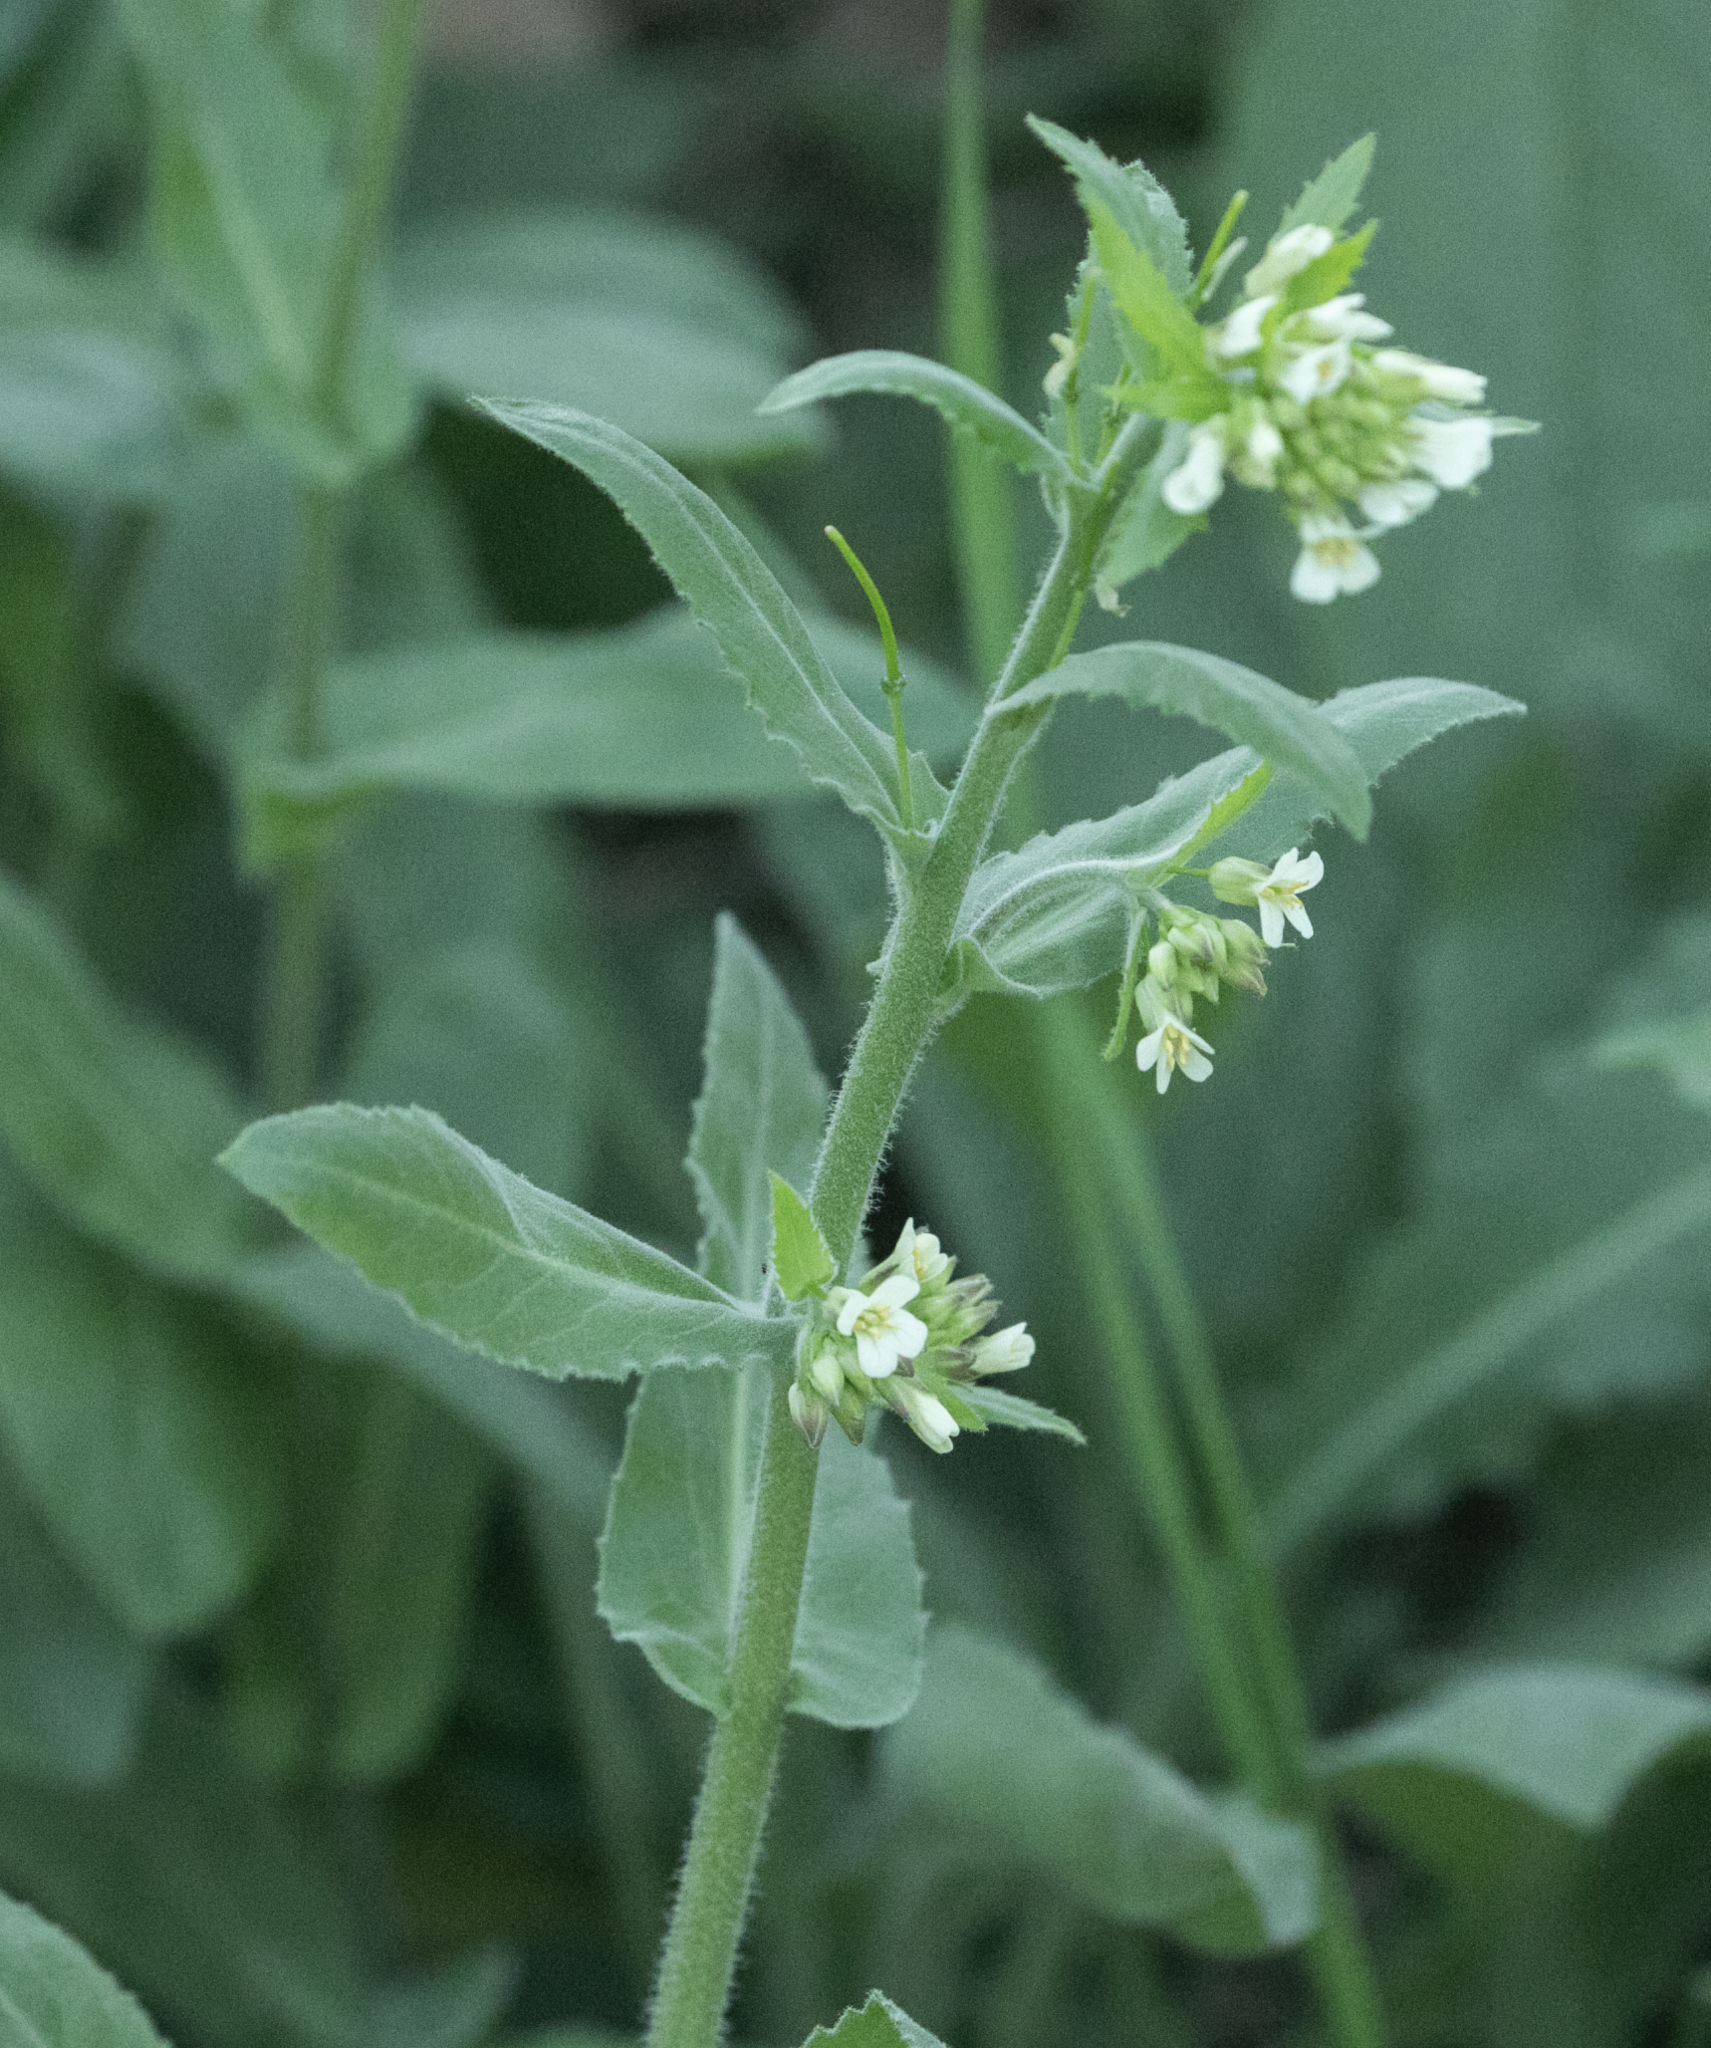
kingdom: Plantae
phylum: Tracheophyta
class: Magnoliopsida
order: Brassicales
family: Brassicaceae
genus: Pseudoturritis
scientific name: Pseudoturritis turrita
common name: Tower cress
